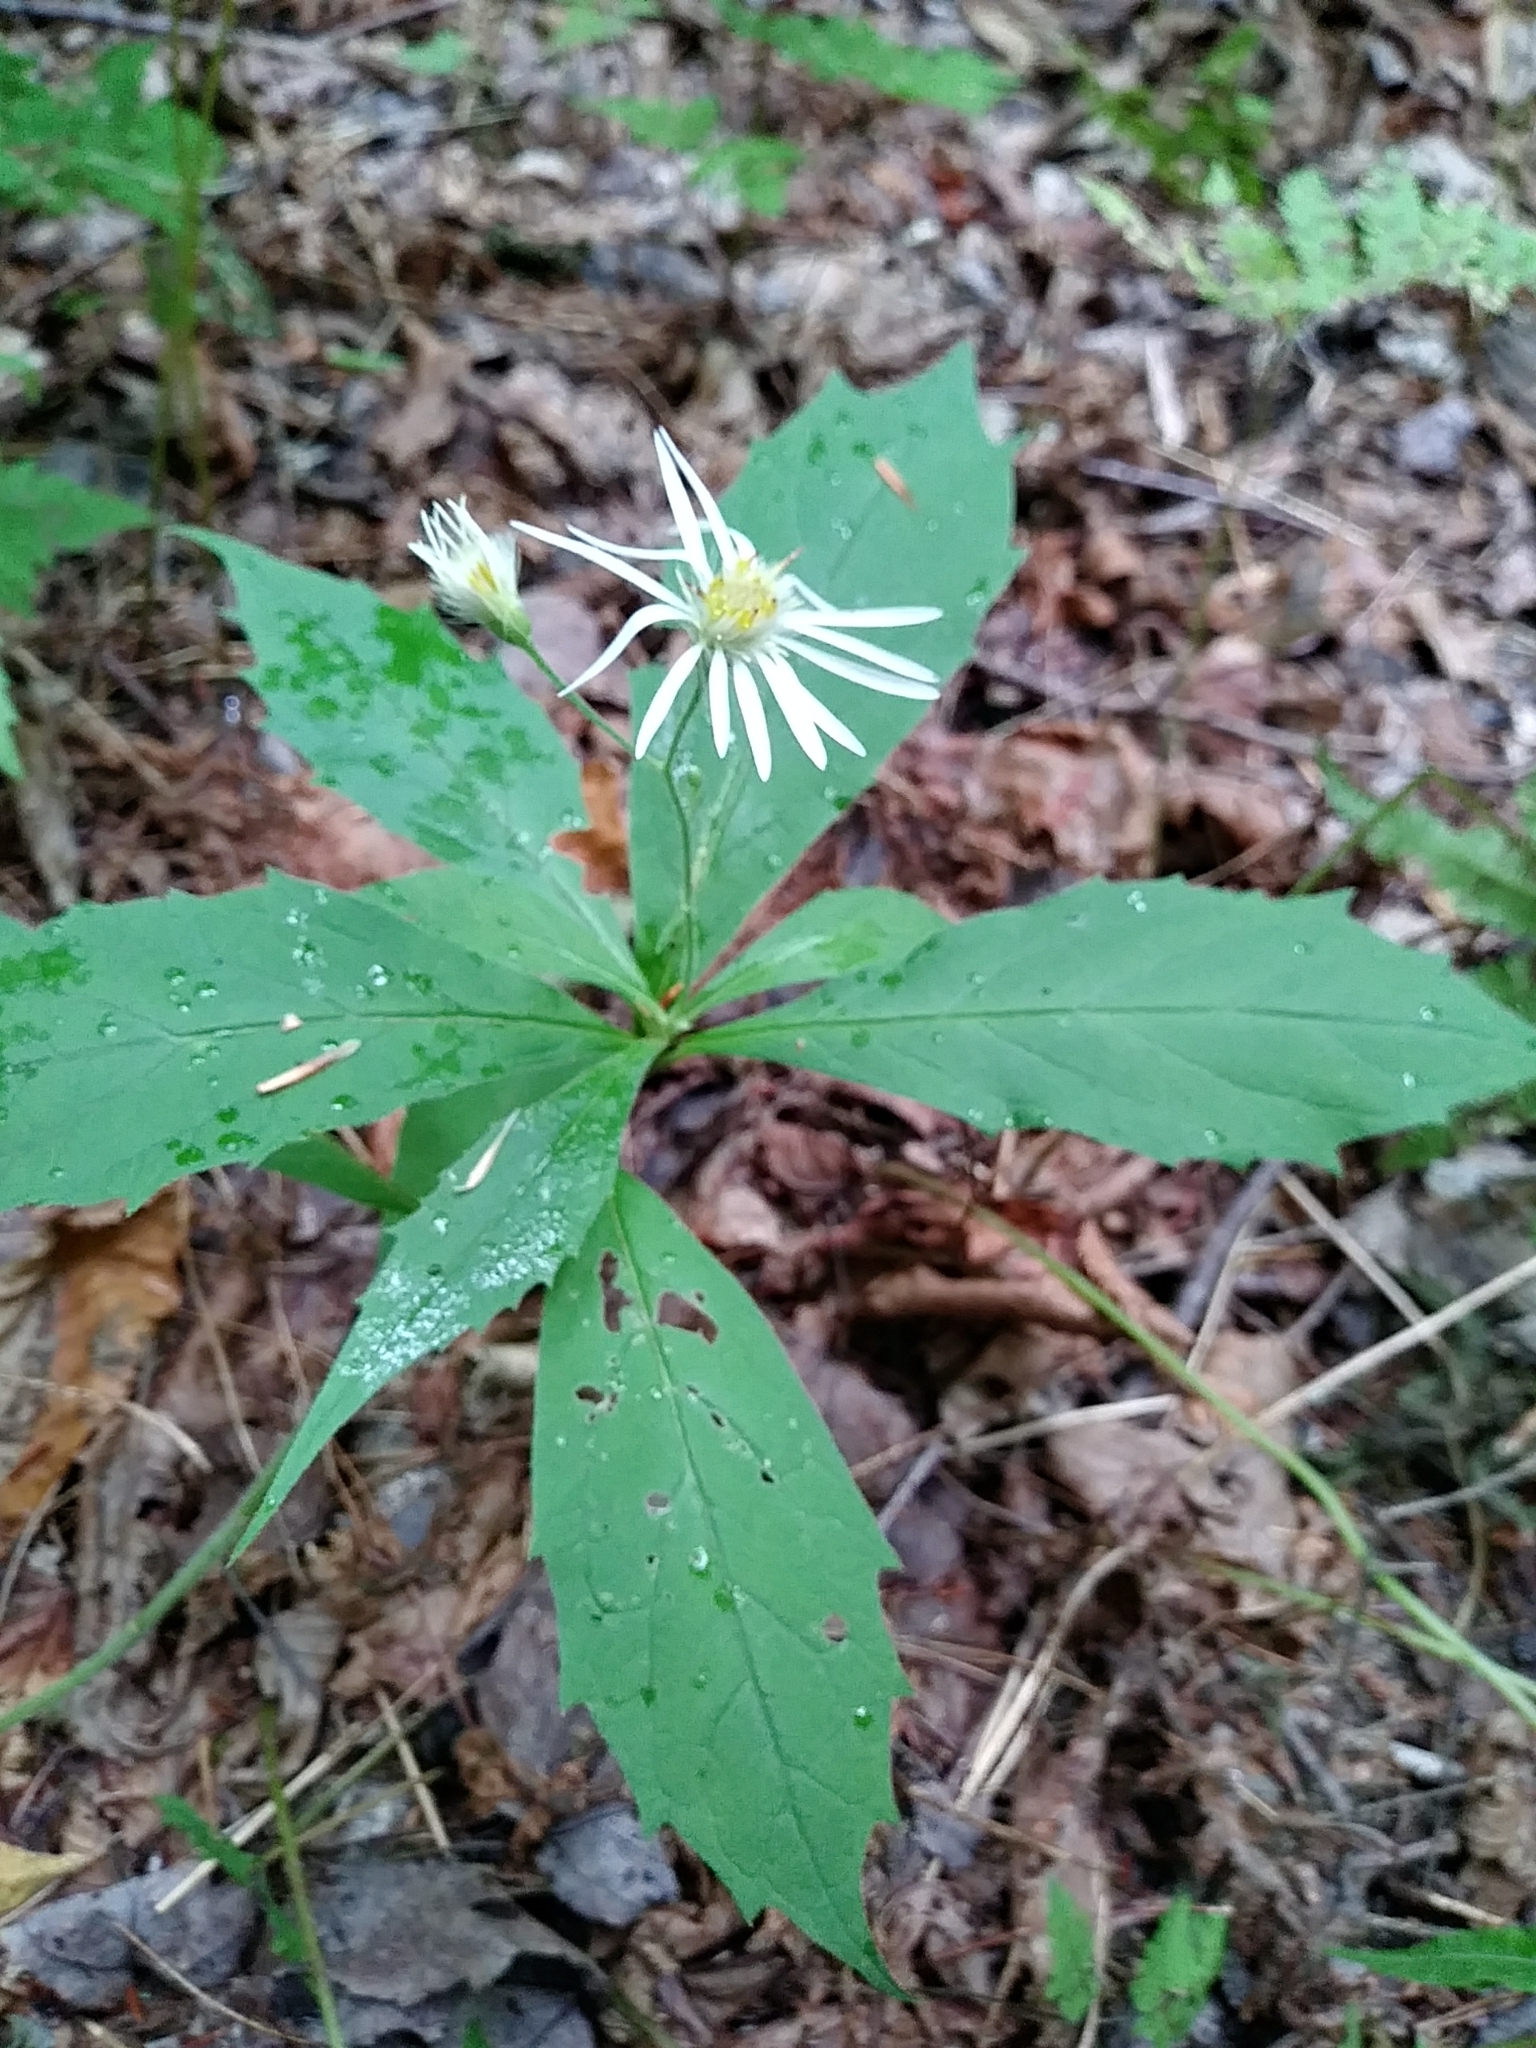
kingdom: Plantae
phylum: Tracheophyta
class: Magnoliopsida
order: Asterales
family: Asteraceae
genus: Oclemena
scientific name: Oclemena acuminata
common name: Mountain aster
